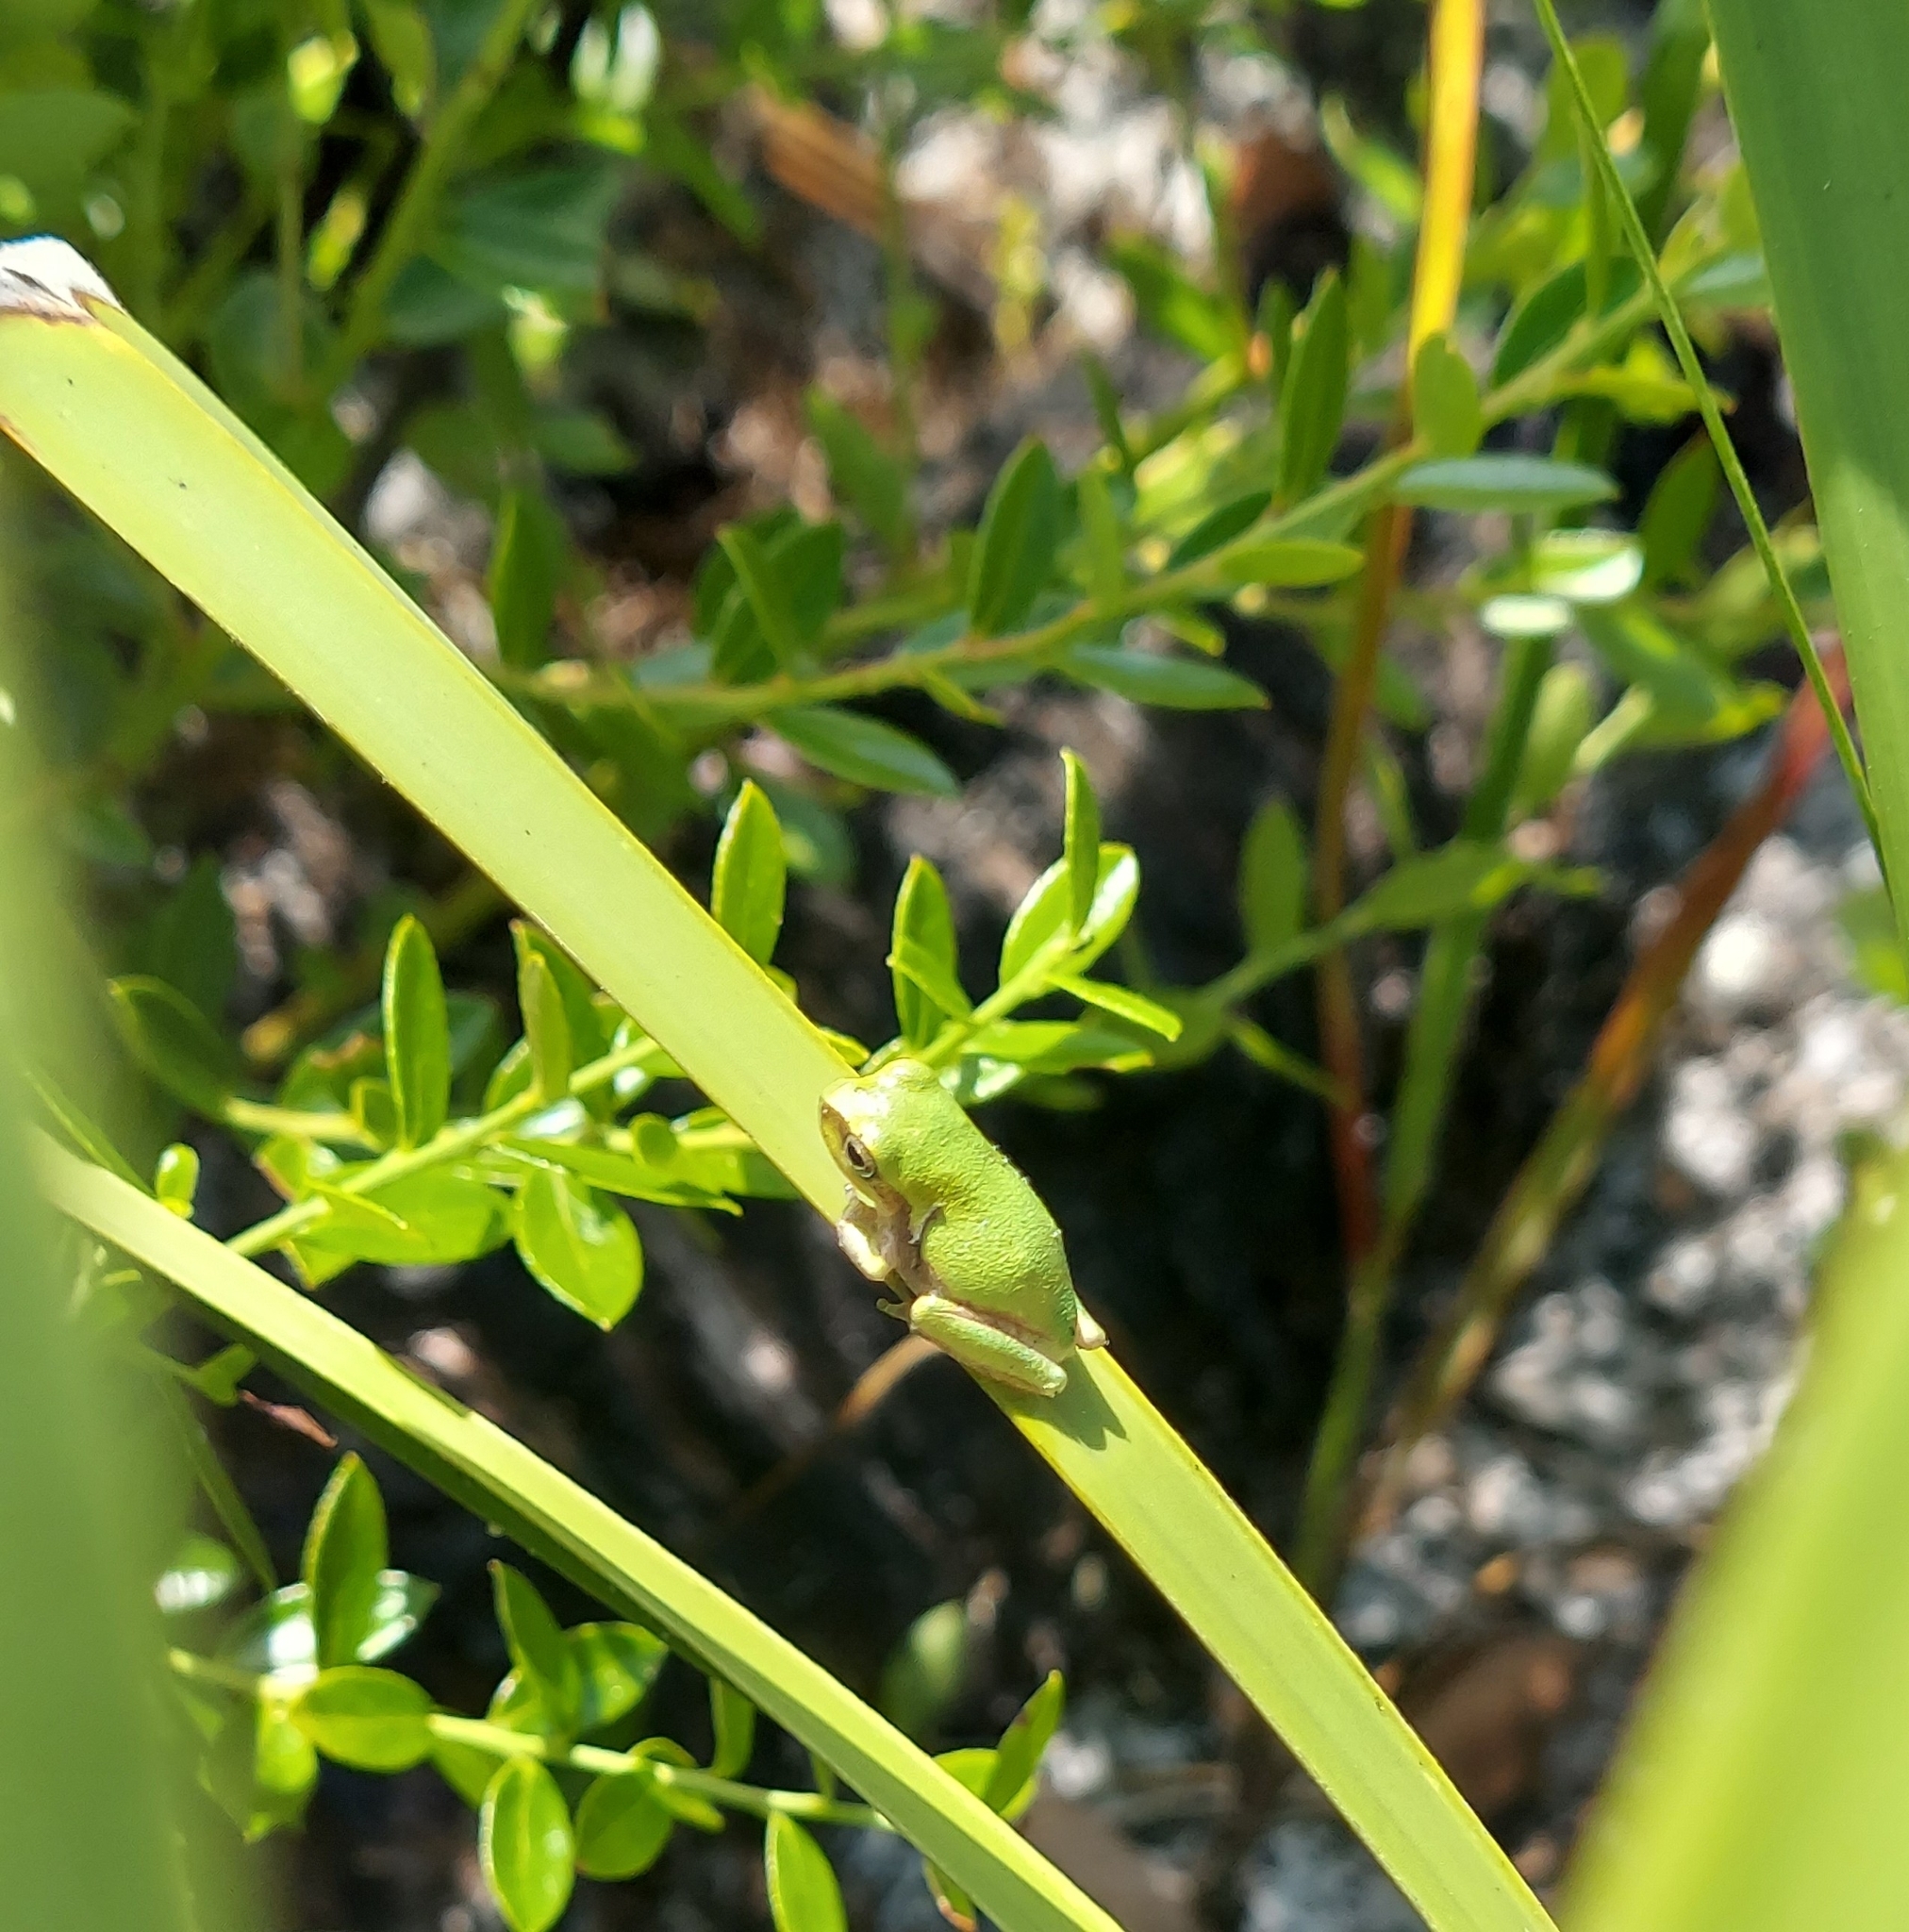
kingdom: Animalia
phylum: Chordata
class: Amphibia
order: Anura
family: Hylidae
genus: Hyla
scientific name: Hyla femoralis
